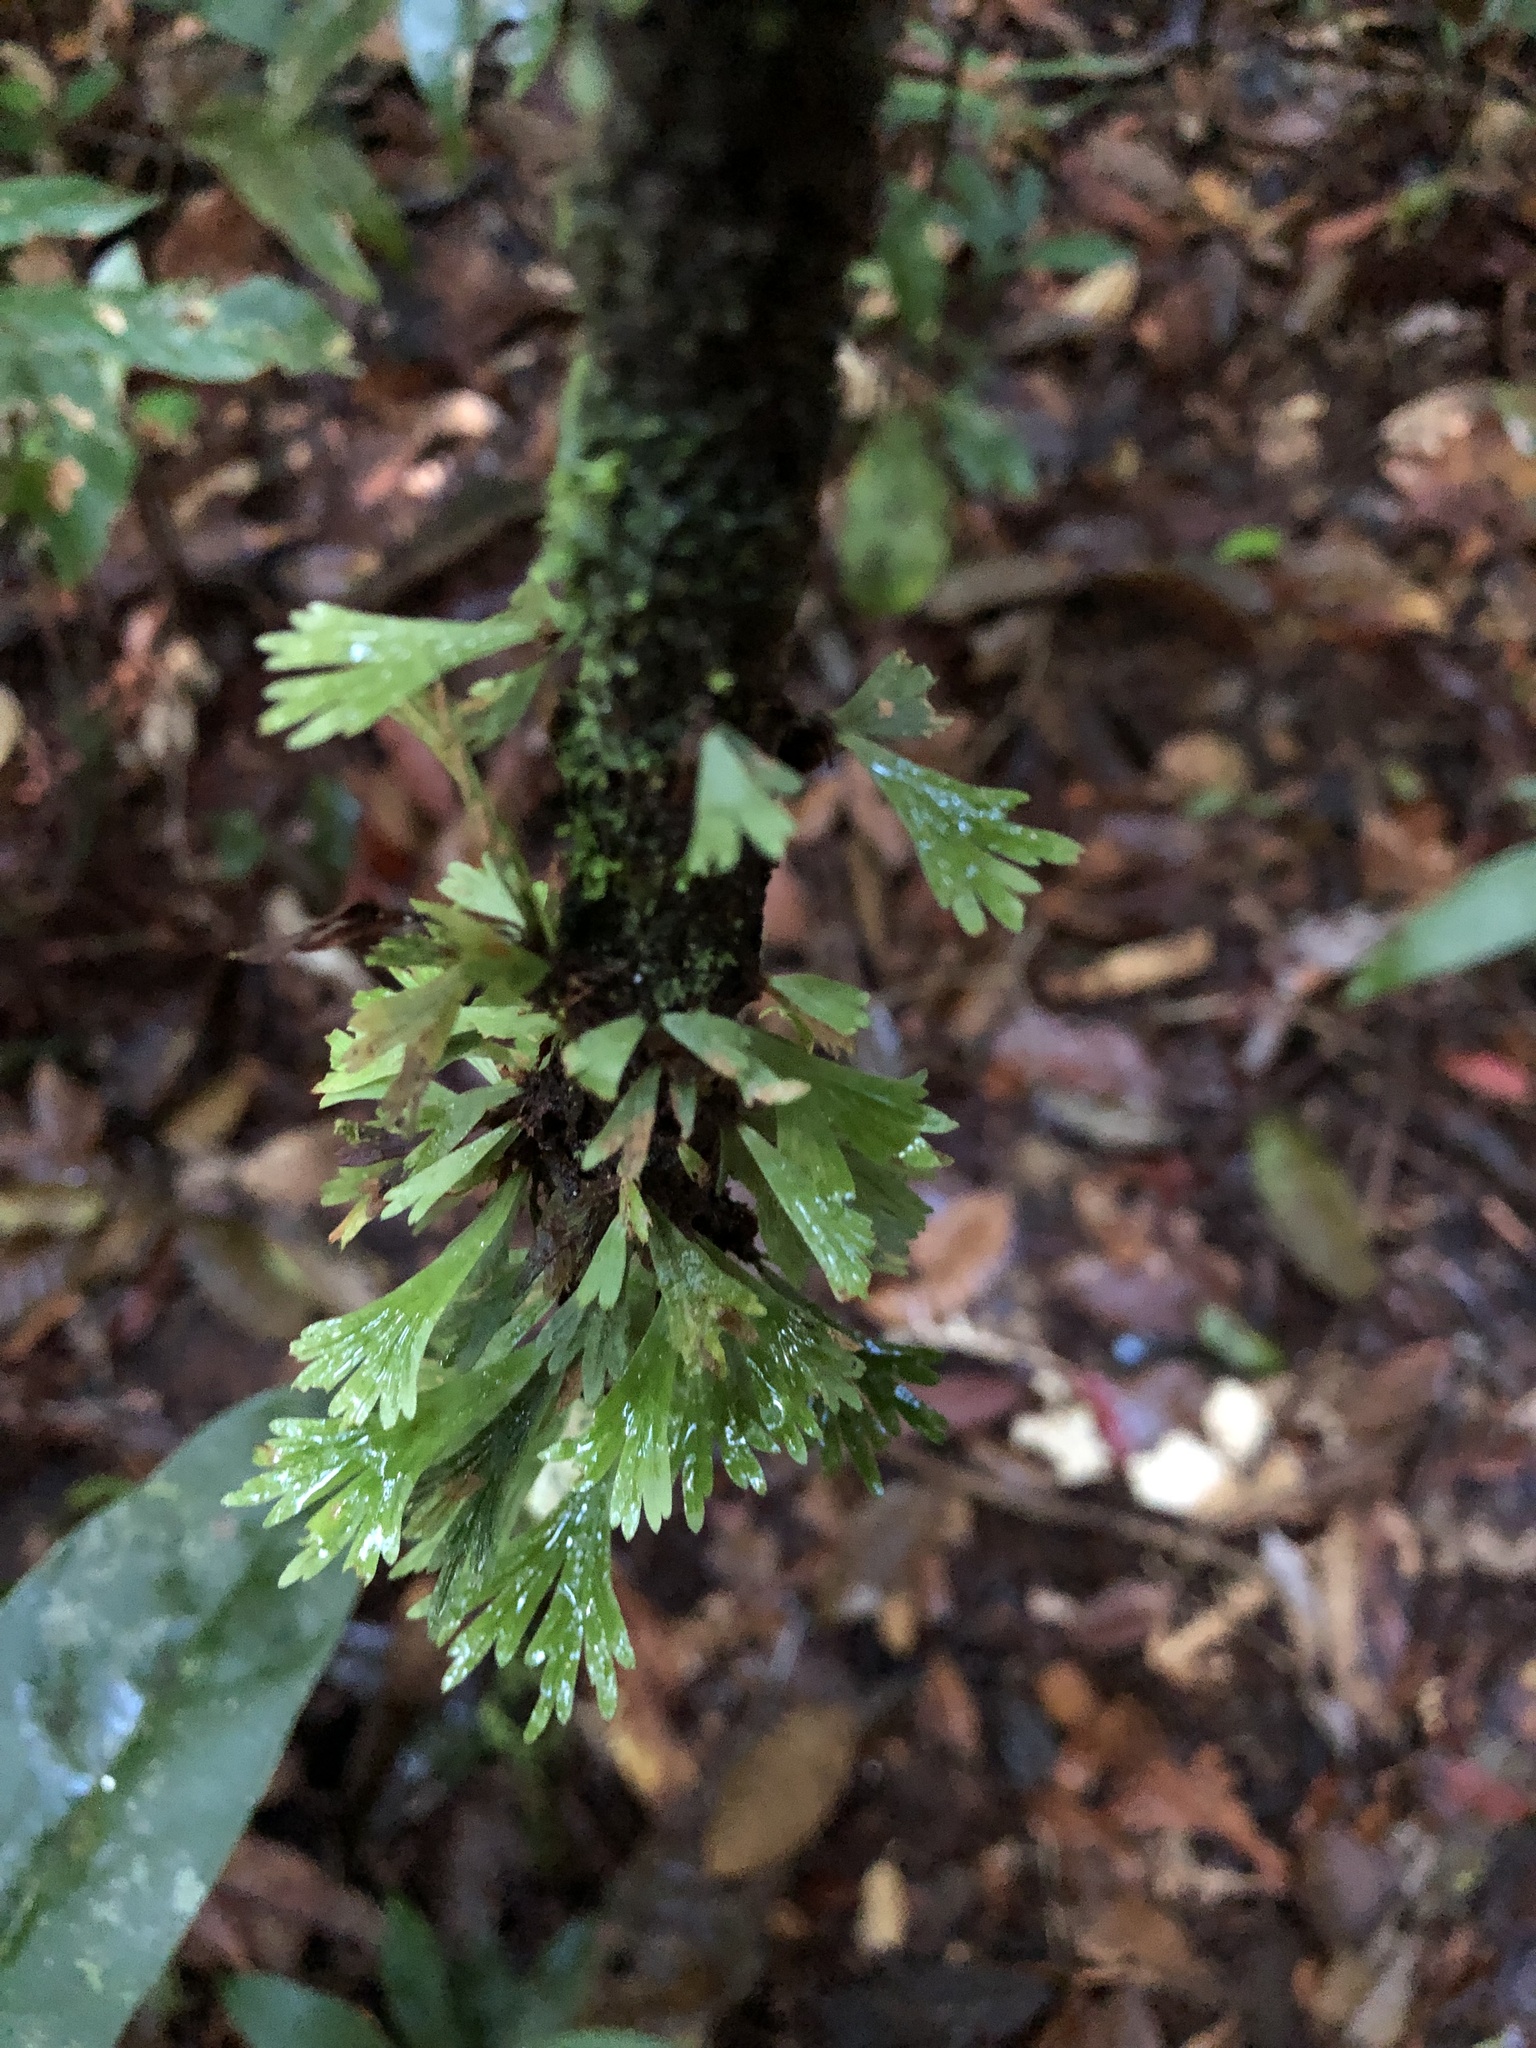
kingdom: Plantae
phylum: Tracheophyta
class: Polypodiopsida
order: Polypodiales
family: Pteridaceae
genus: Hecistopteris
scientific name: Hecistopteris pumila
